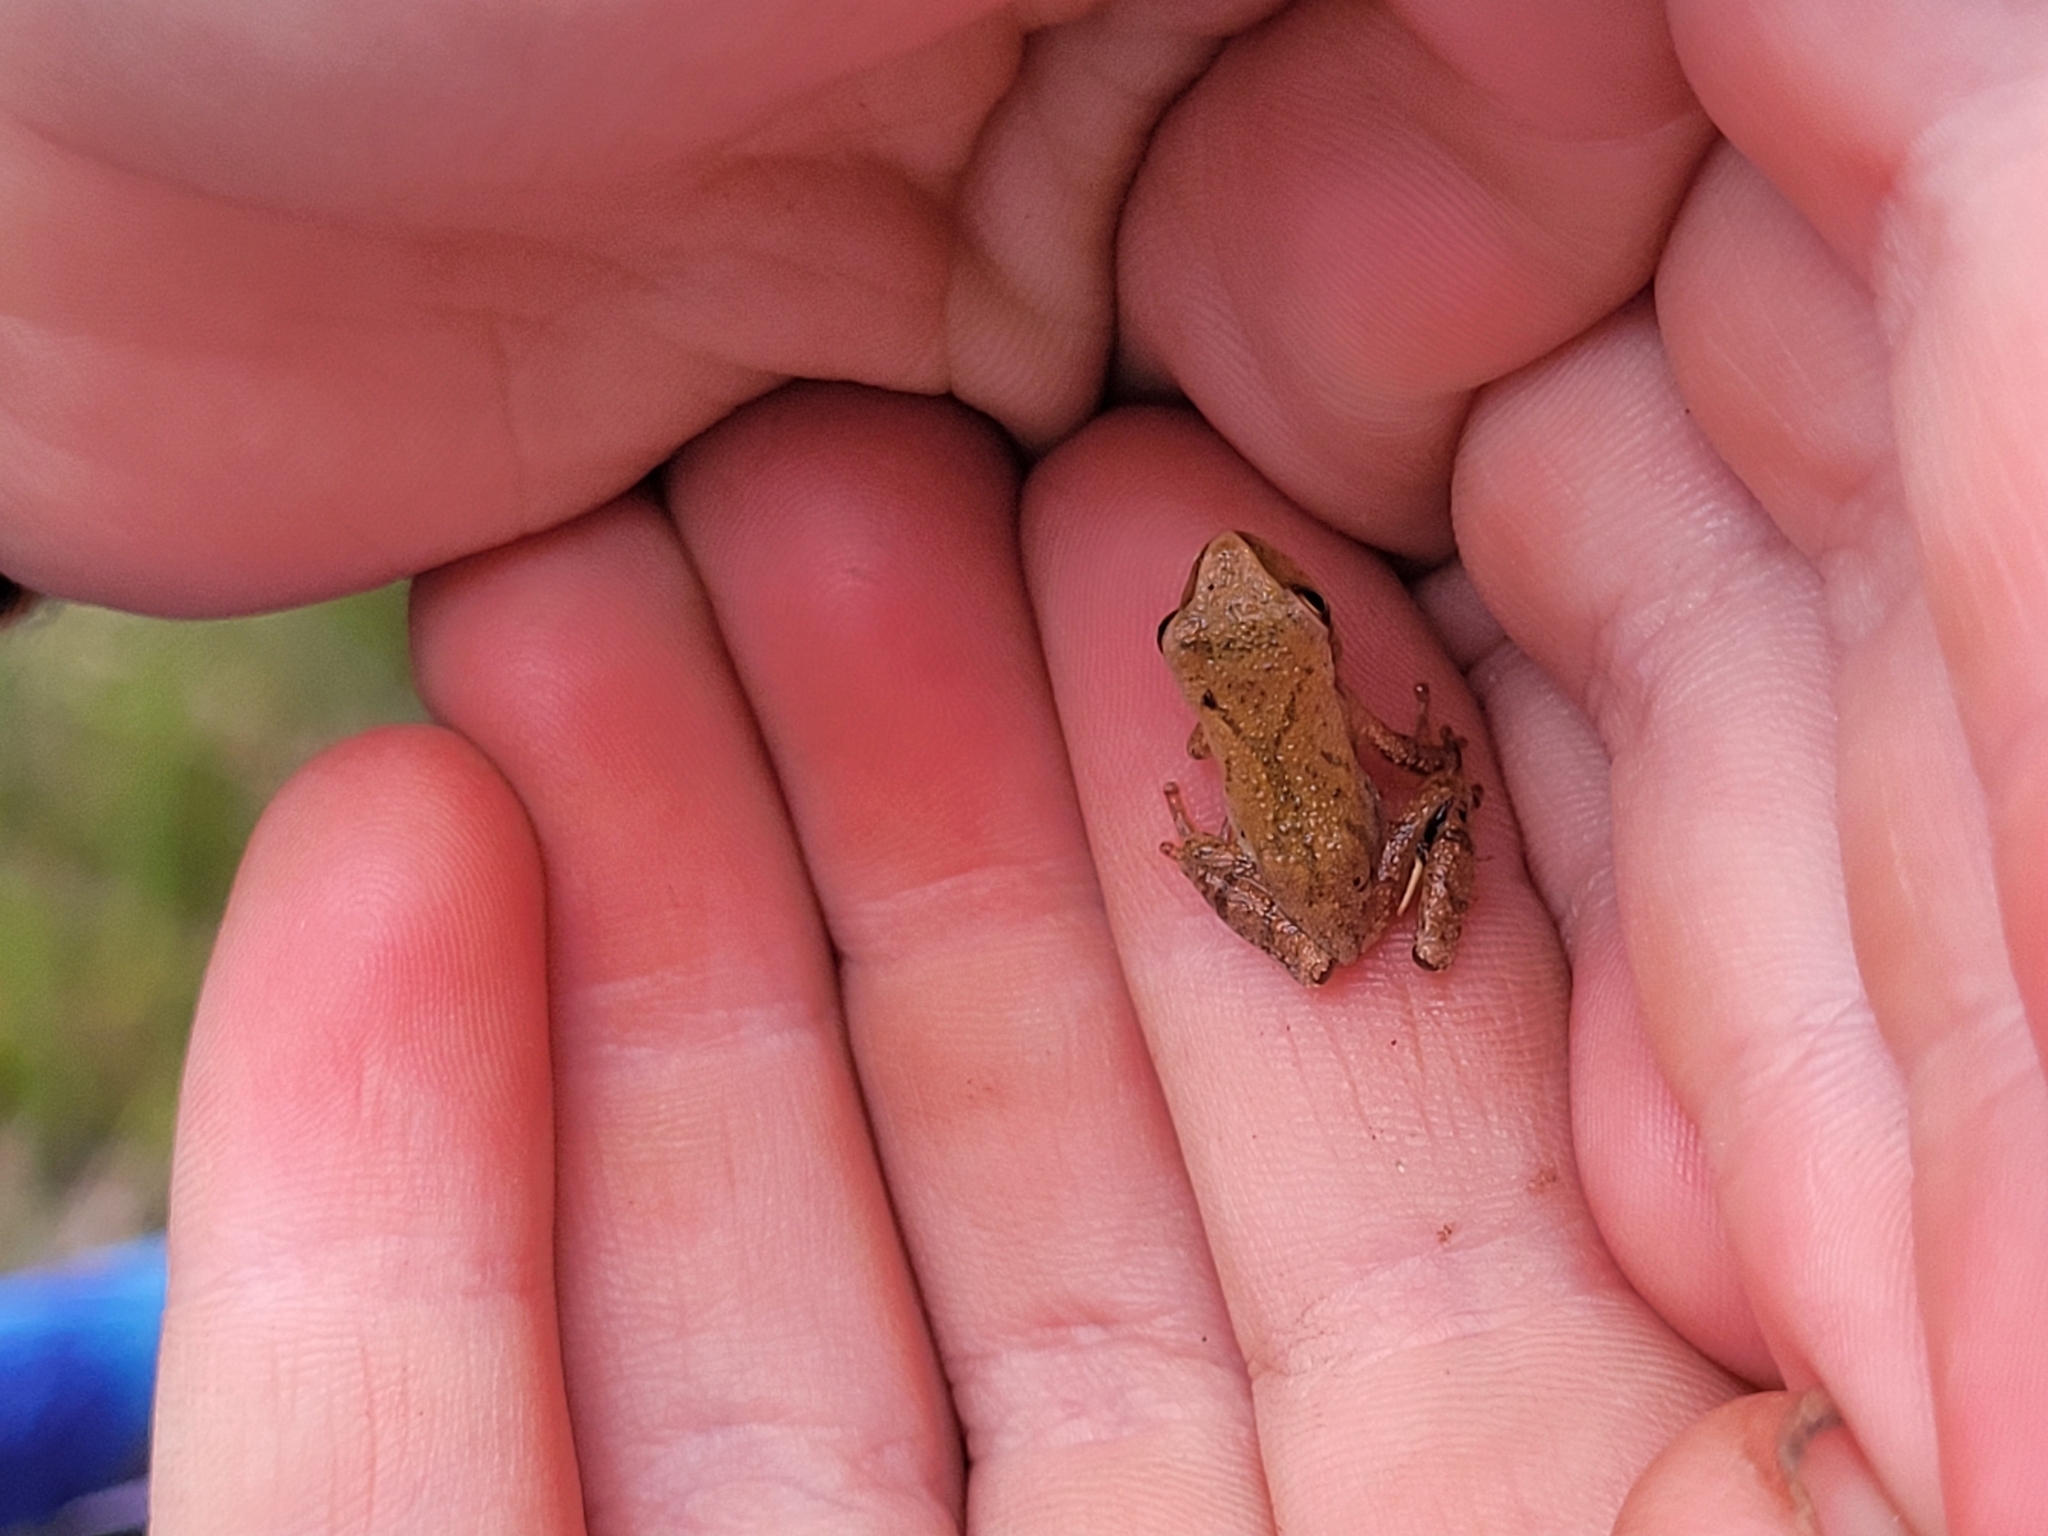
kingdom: Animalia
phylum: Chordata
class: Amphibia
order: Anura
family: Hylidae
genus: Pseudacris
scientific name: Pseudacris crucifer
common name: Spring peeper
